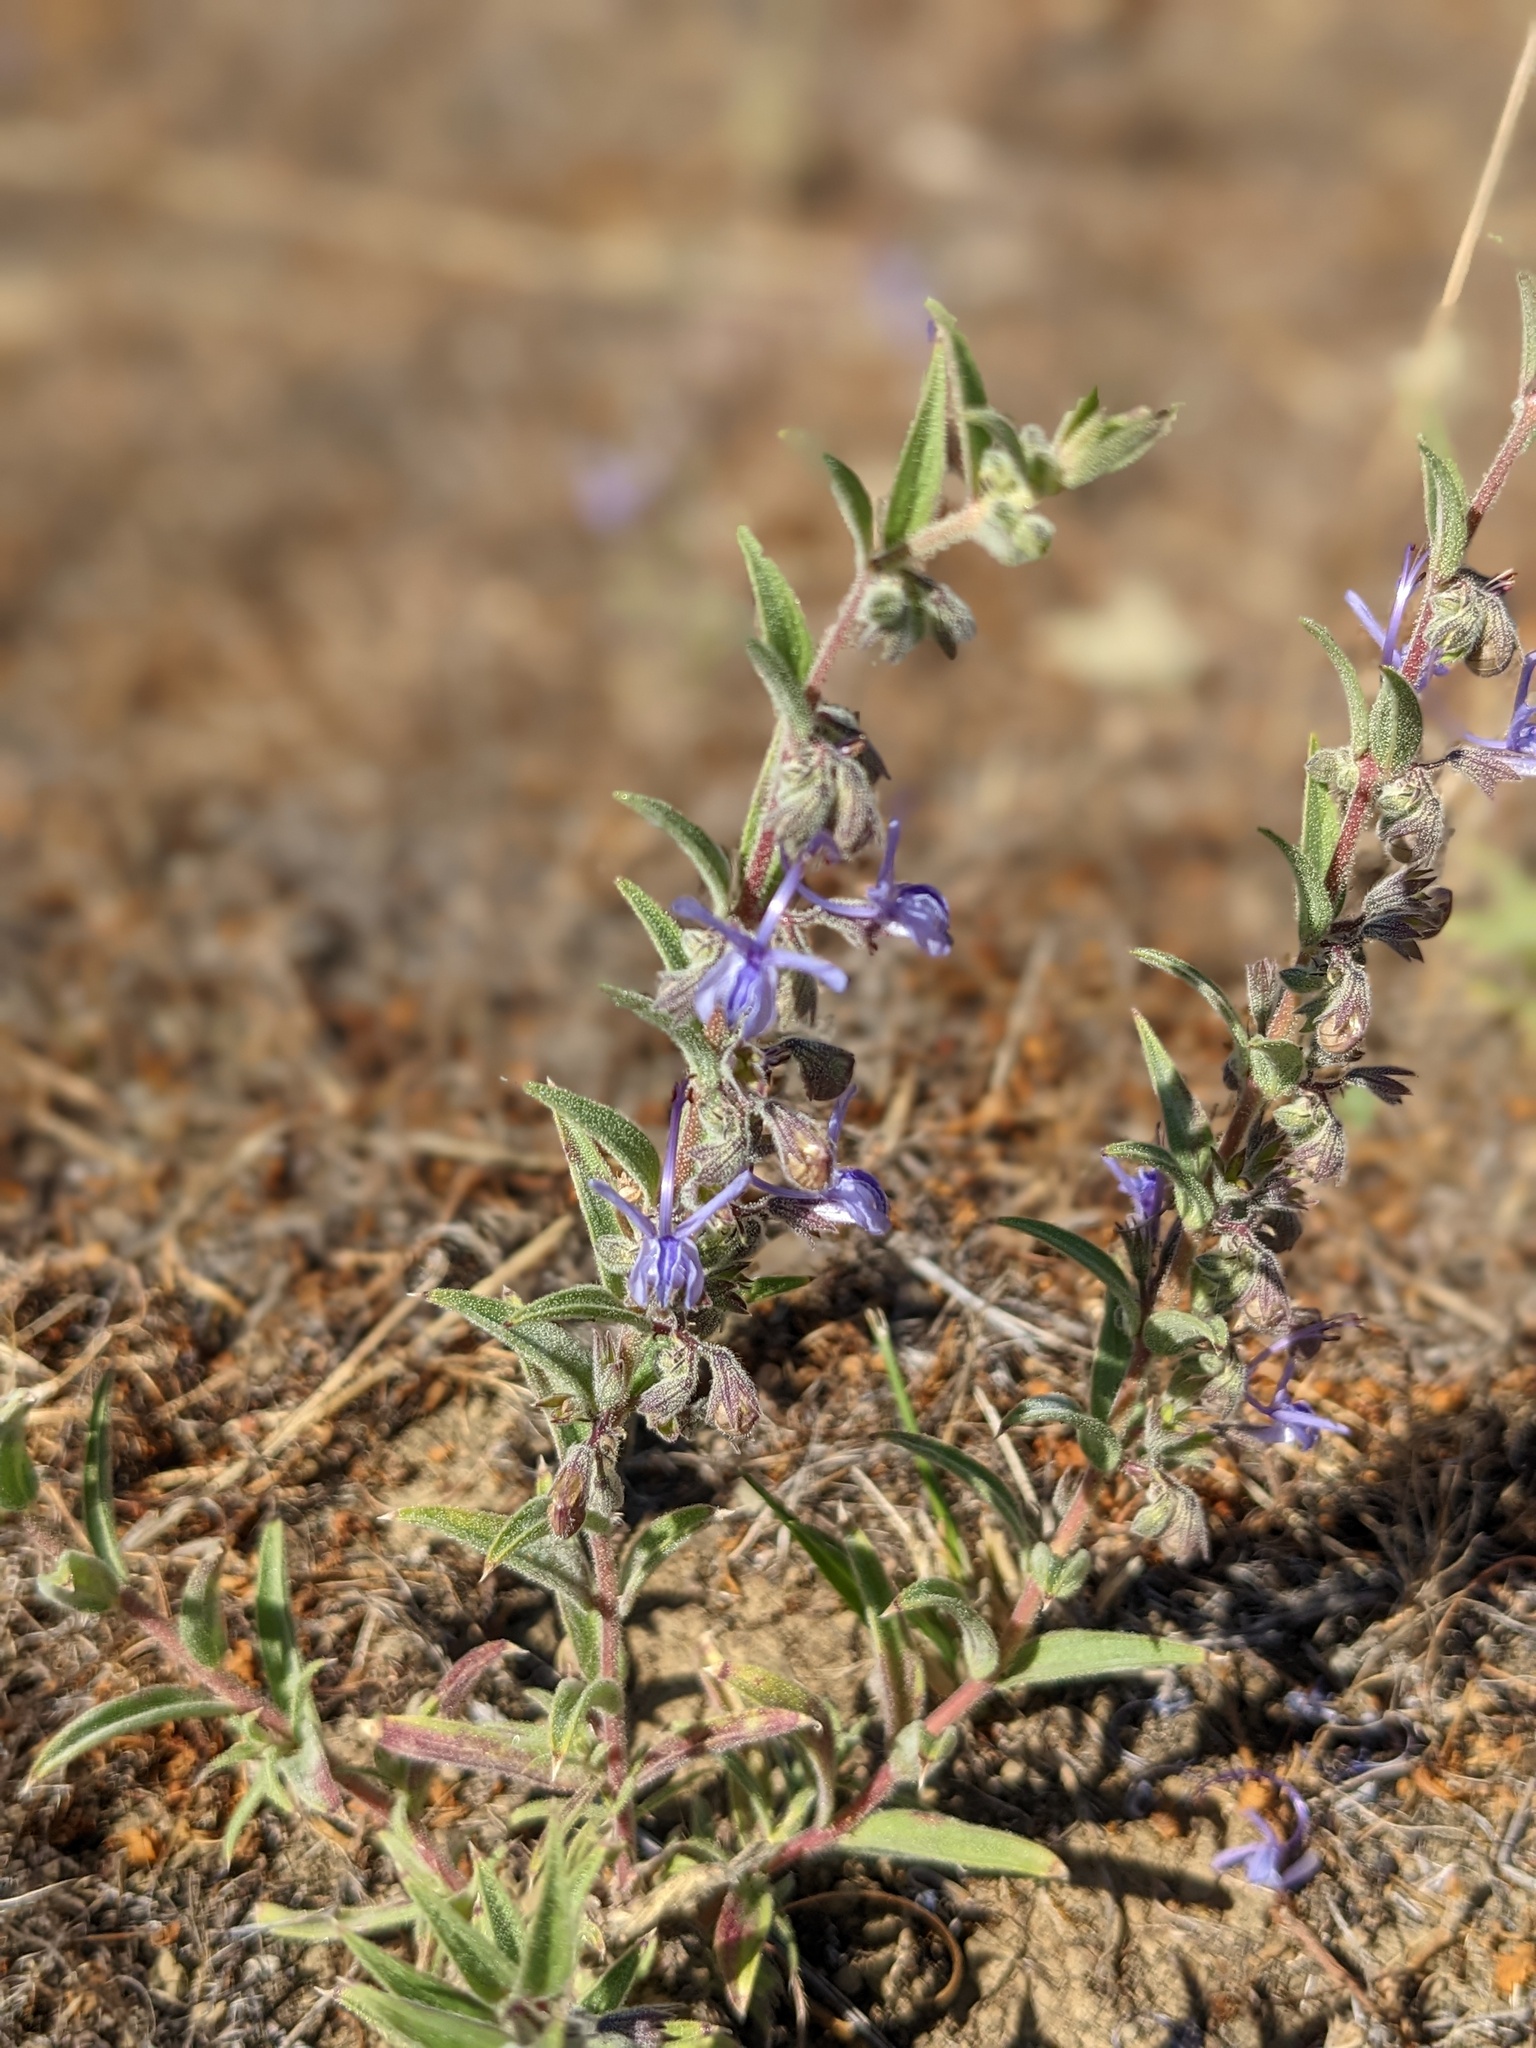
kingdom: Plantae
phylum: Tracheophyta
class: Magnoliopsida
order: Lamiales
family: Lamiaceae
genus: Trichostema
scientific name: Trichostema lanceolatum
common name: Vinegar-weed
